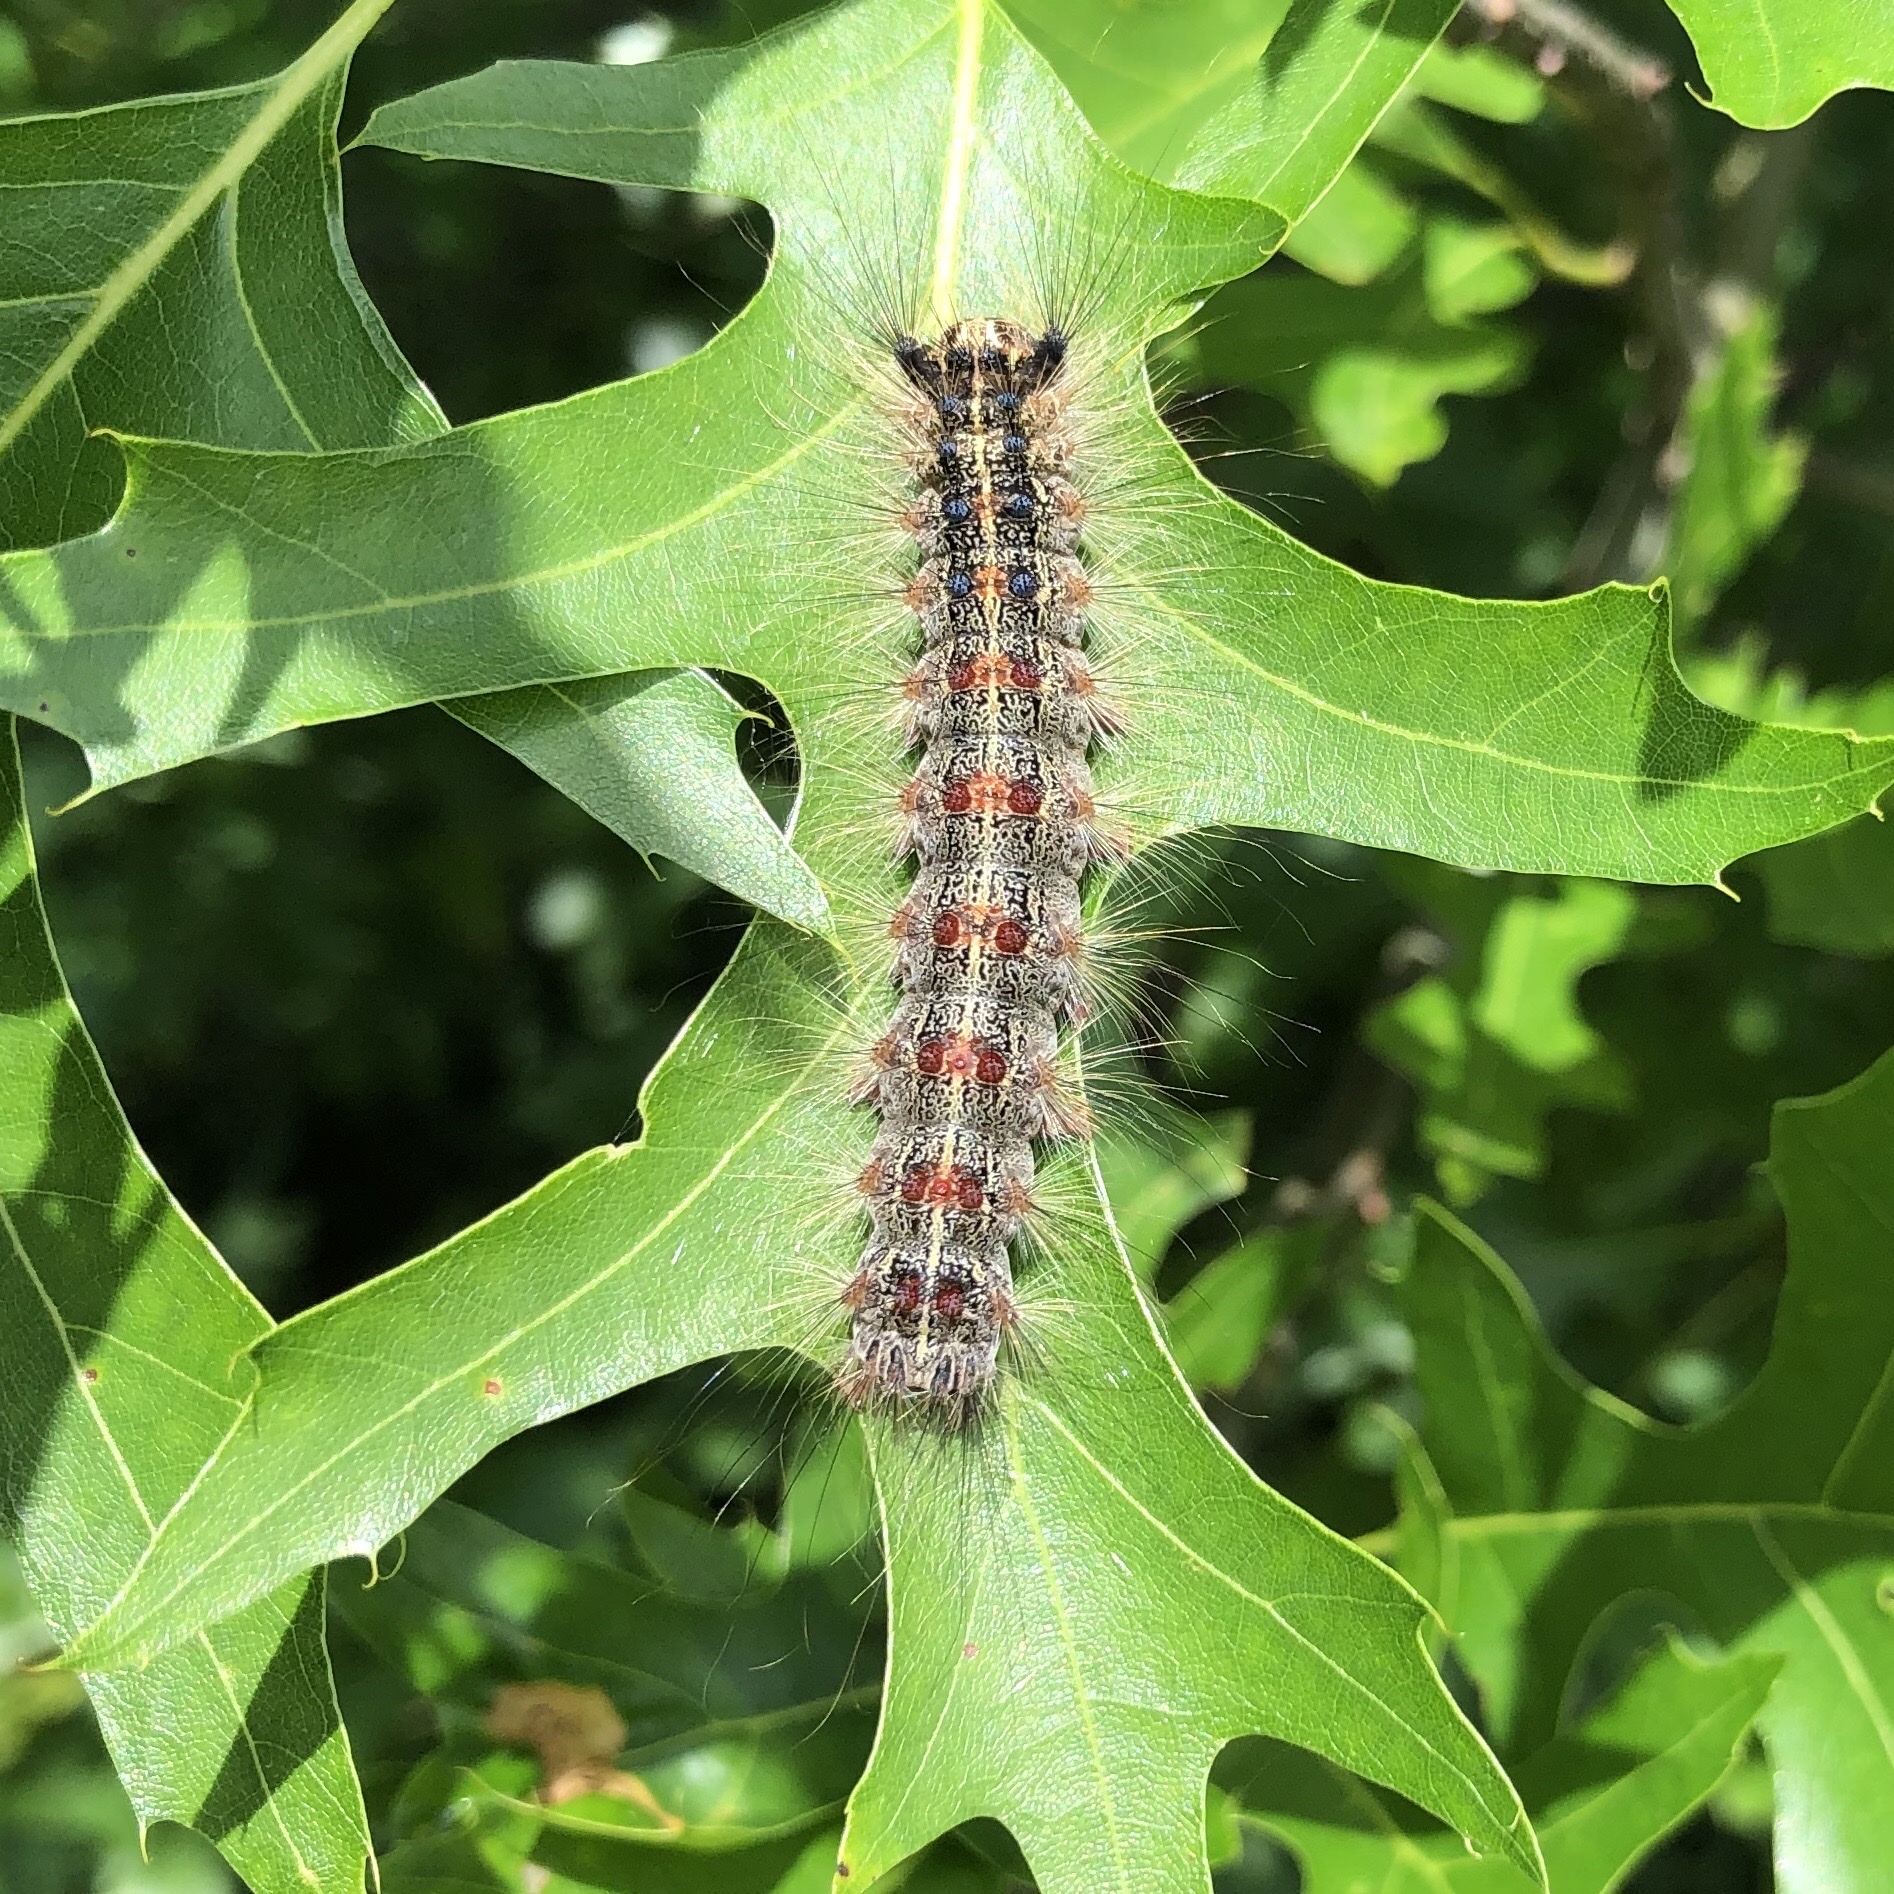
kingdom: Animalia
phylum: Arthropoda
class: Insecta
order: Lepidoptera
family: Erebidae
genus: Lymantria
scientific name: Lymantria dispar
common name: Gypsy moth
